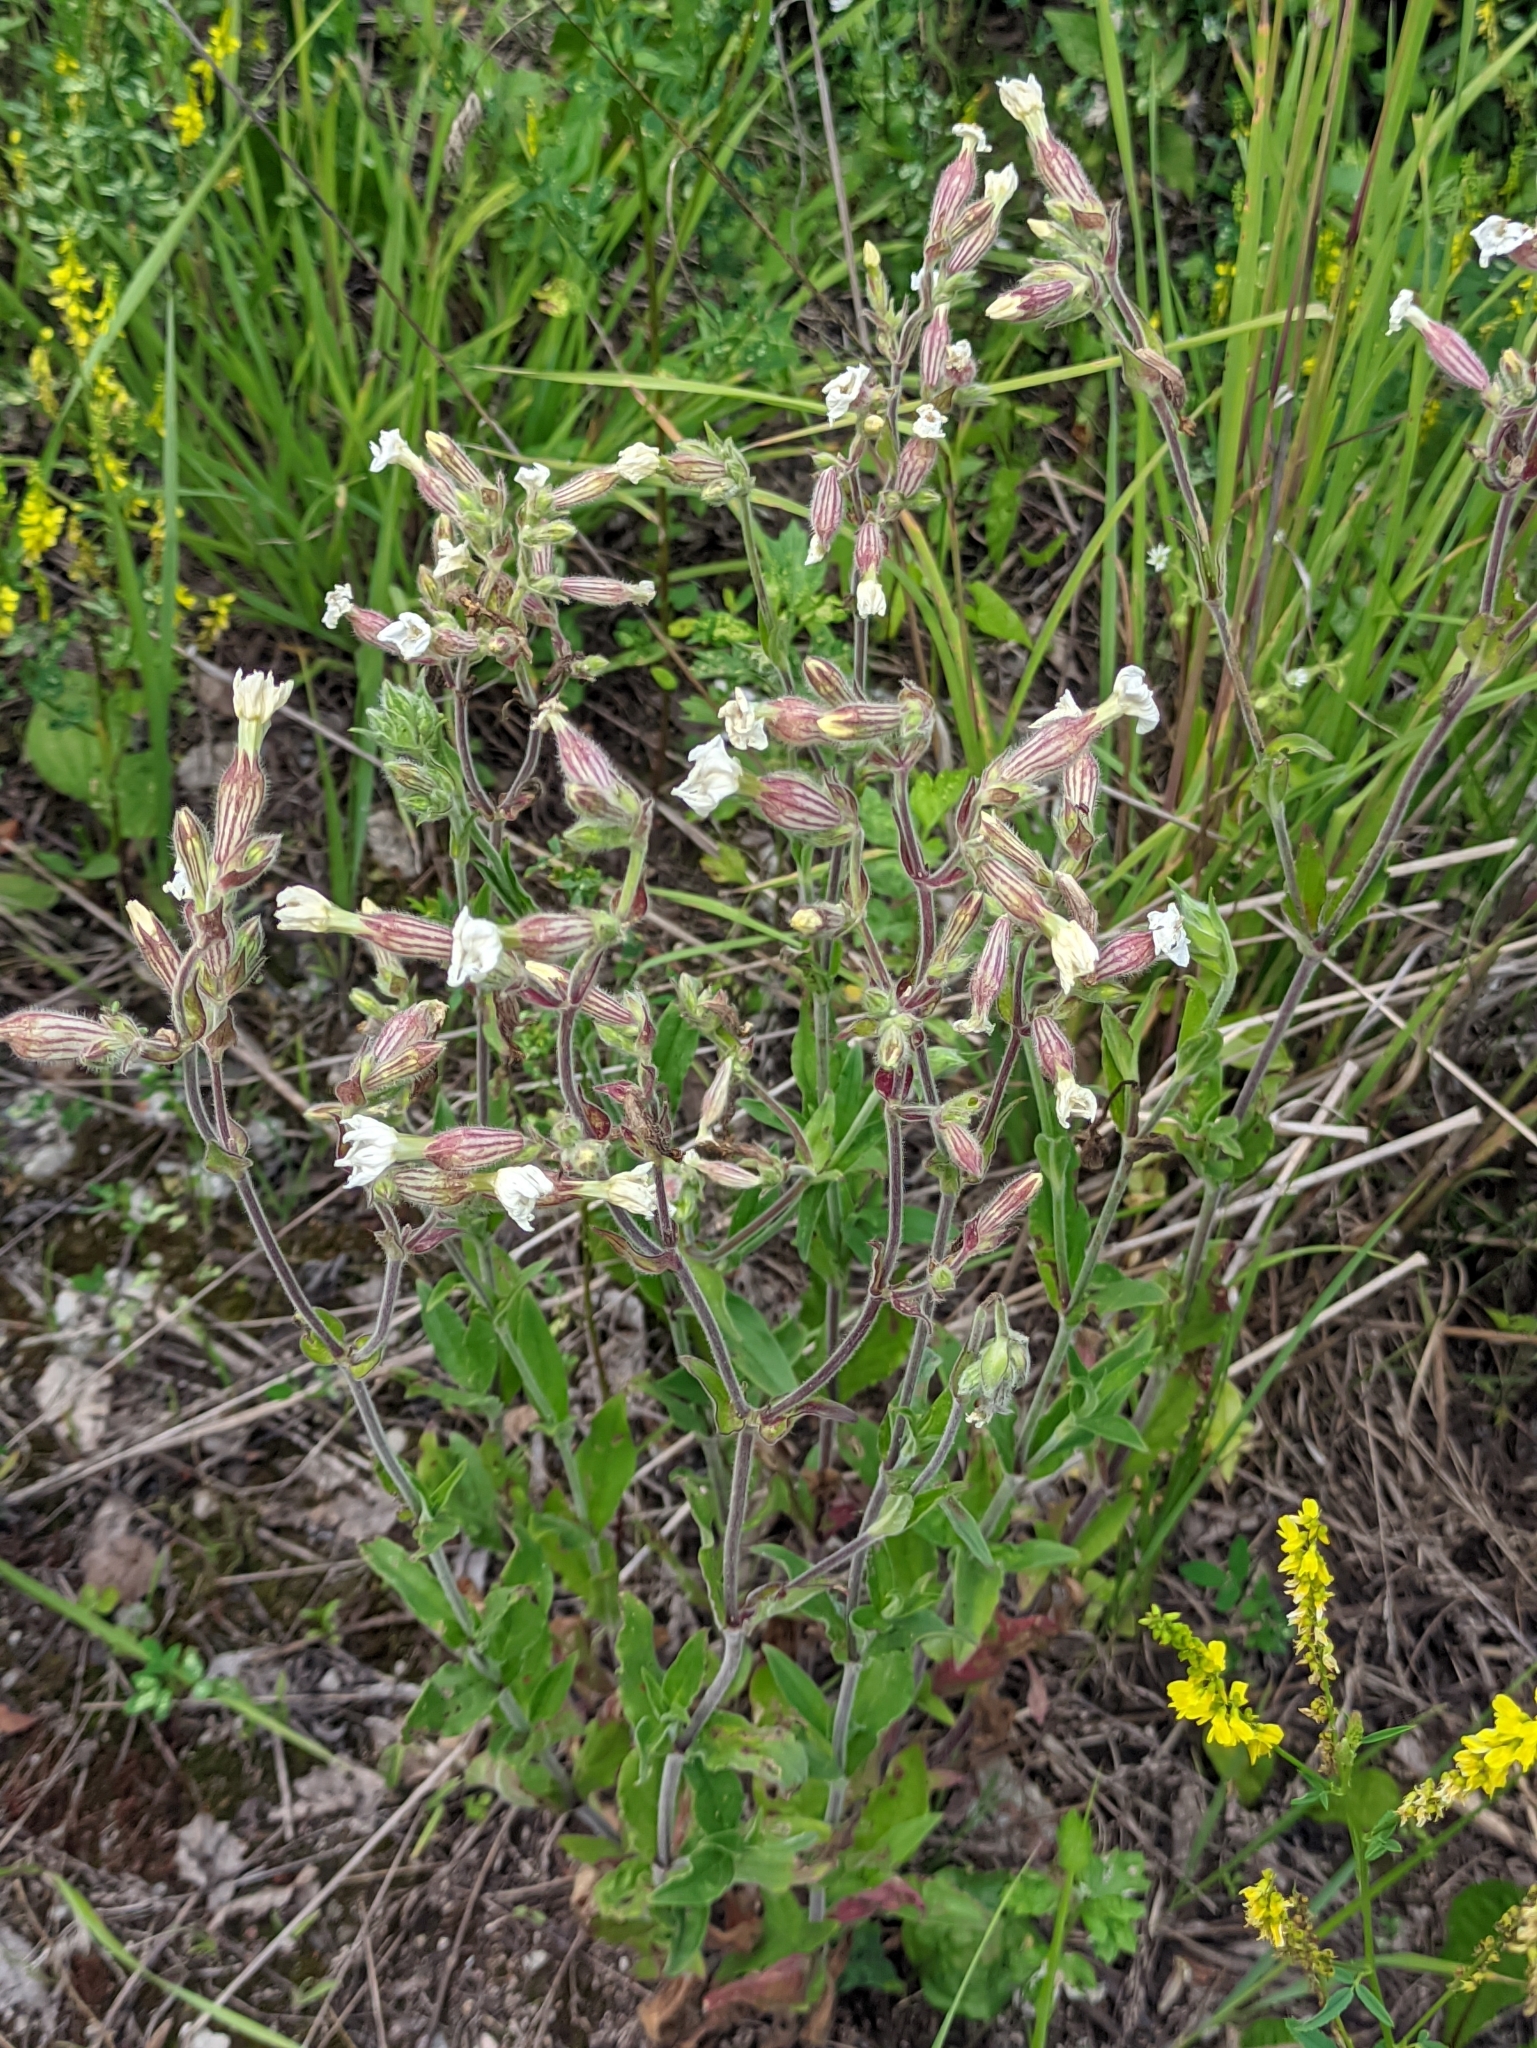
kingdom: Plantae
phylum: Tracheophyta
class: Magnoliopsida
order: Caryophyllales
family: Caryophyllaceae
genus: Silene
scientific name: Silene latifolia
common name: White campion
